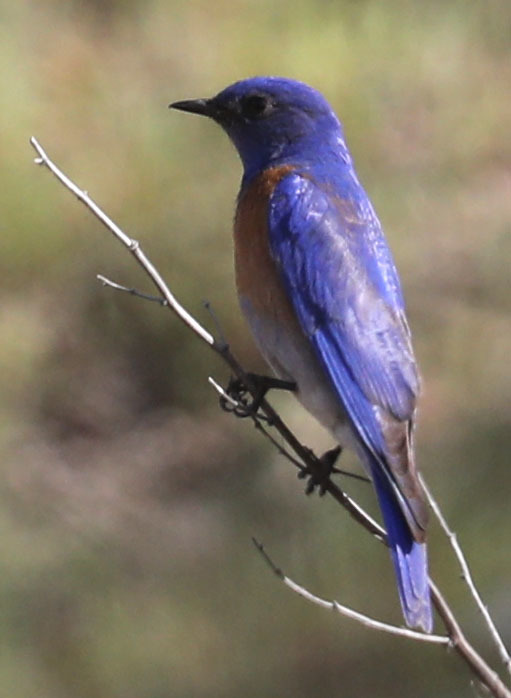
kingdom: Animalia
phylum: Chordata
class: Aves
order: Passeriformes
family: Turdidae
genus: Sialia
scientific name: Sialia mexicana
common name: Western bluebird
